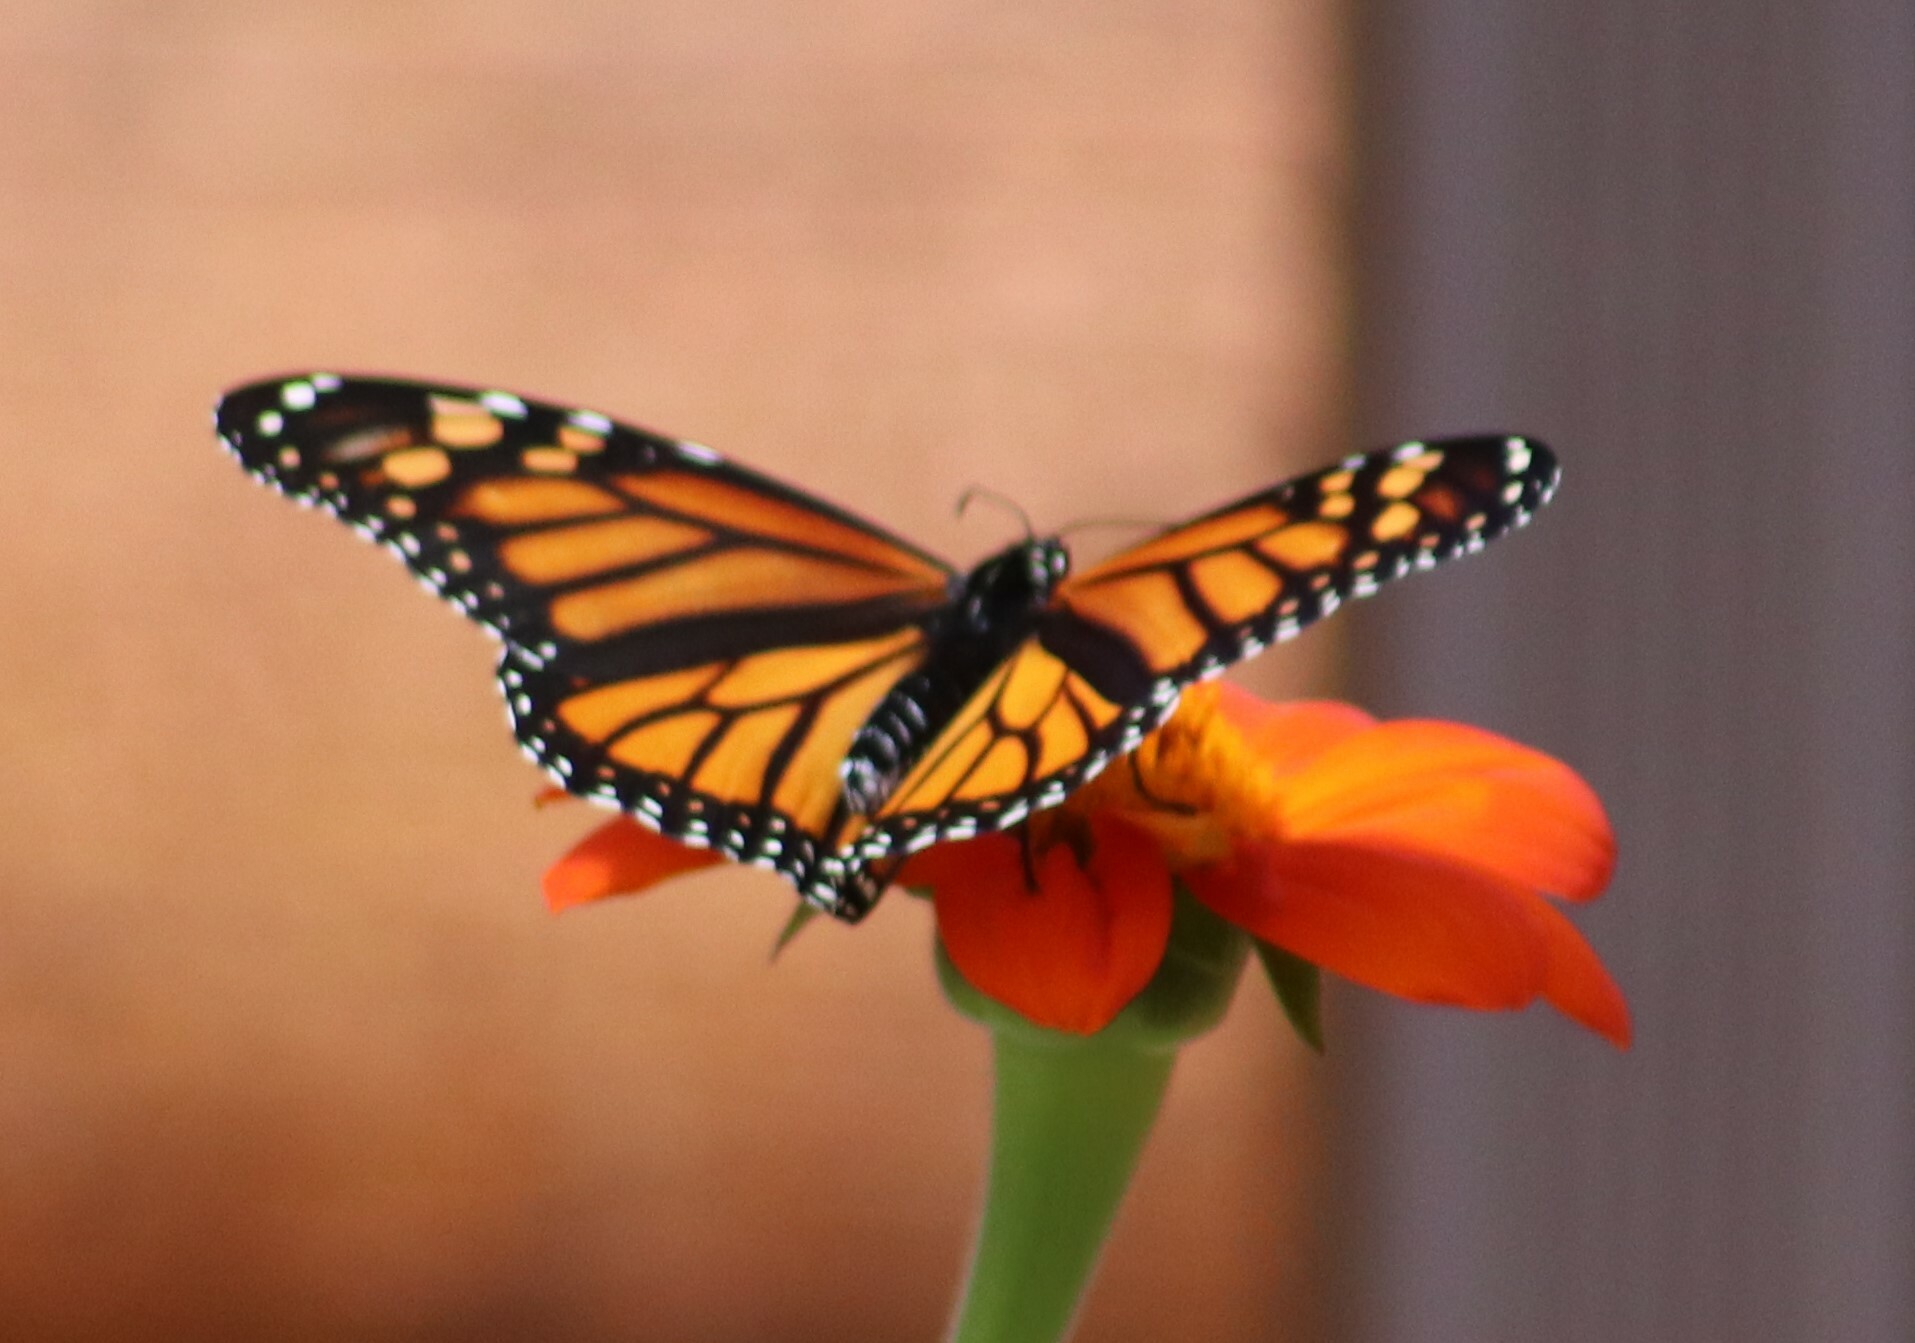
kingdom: Animalia
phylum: Arthropoda
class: Insecta
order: Lepidoptera
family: Nymphalidae
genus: Danaus
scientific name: Danaus plexippus
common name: Monarch
